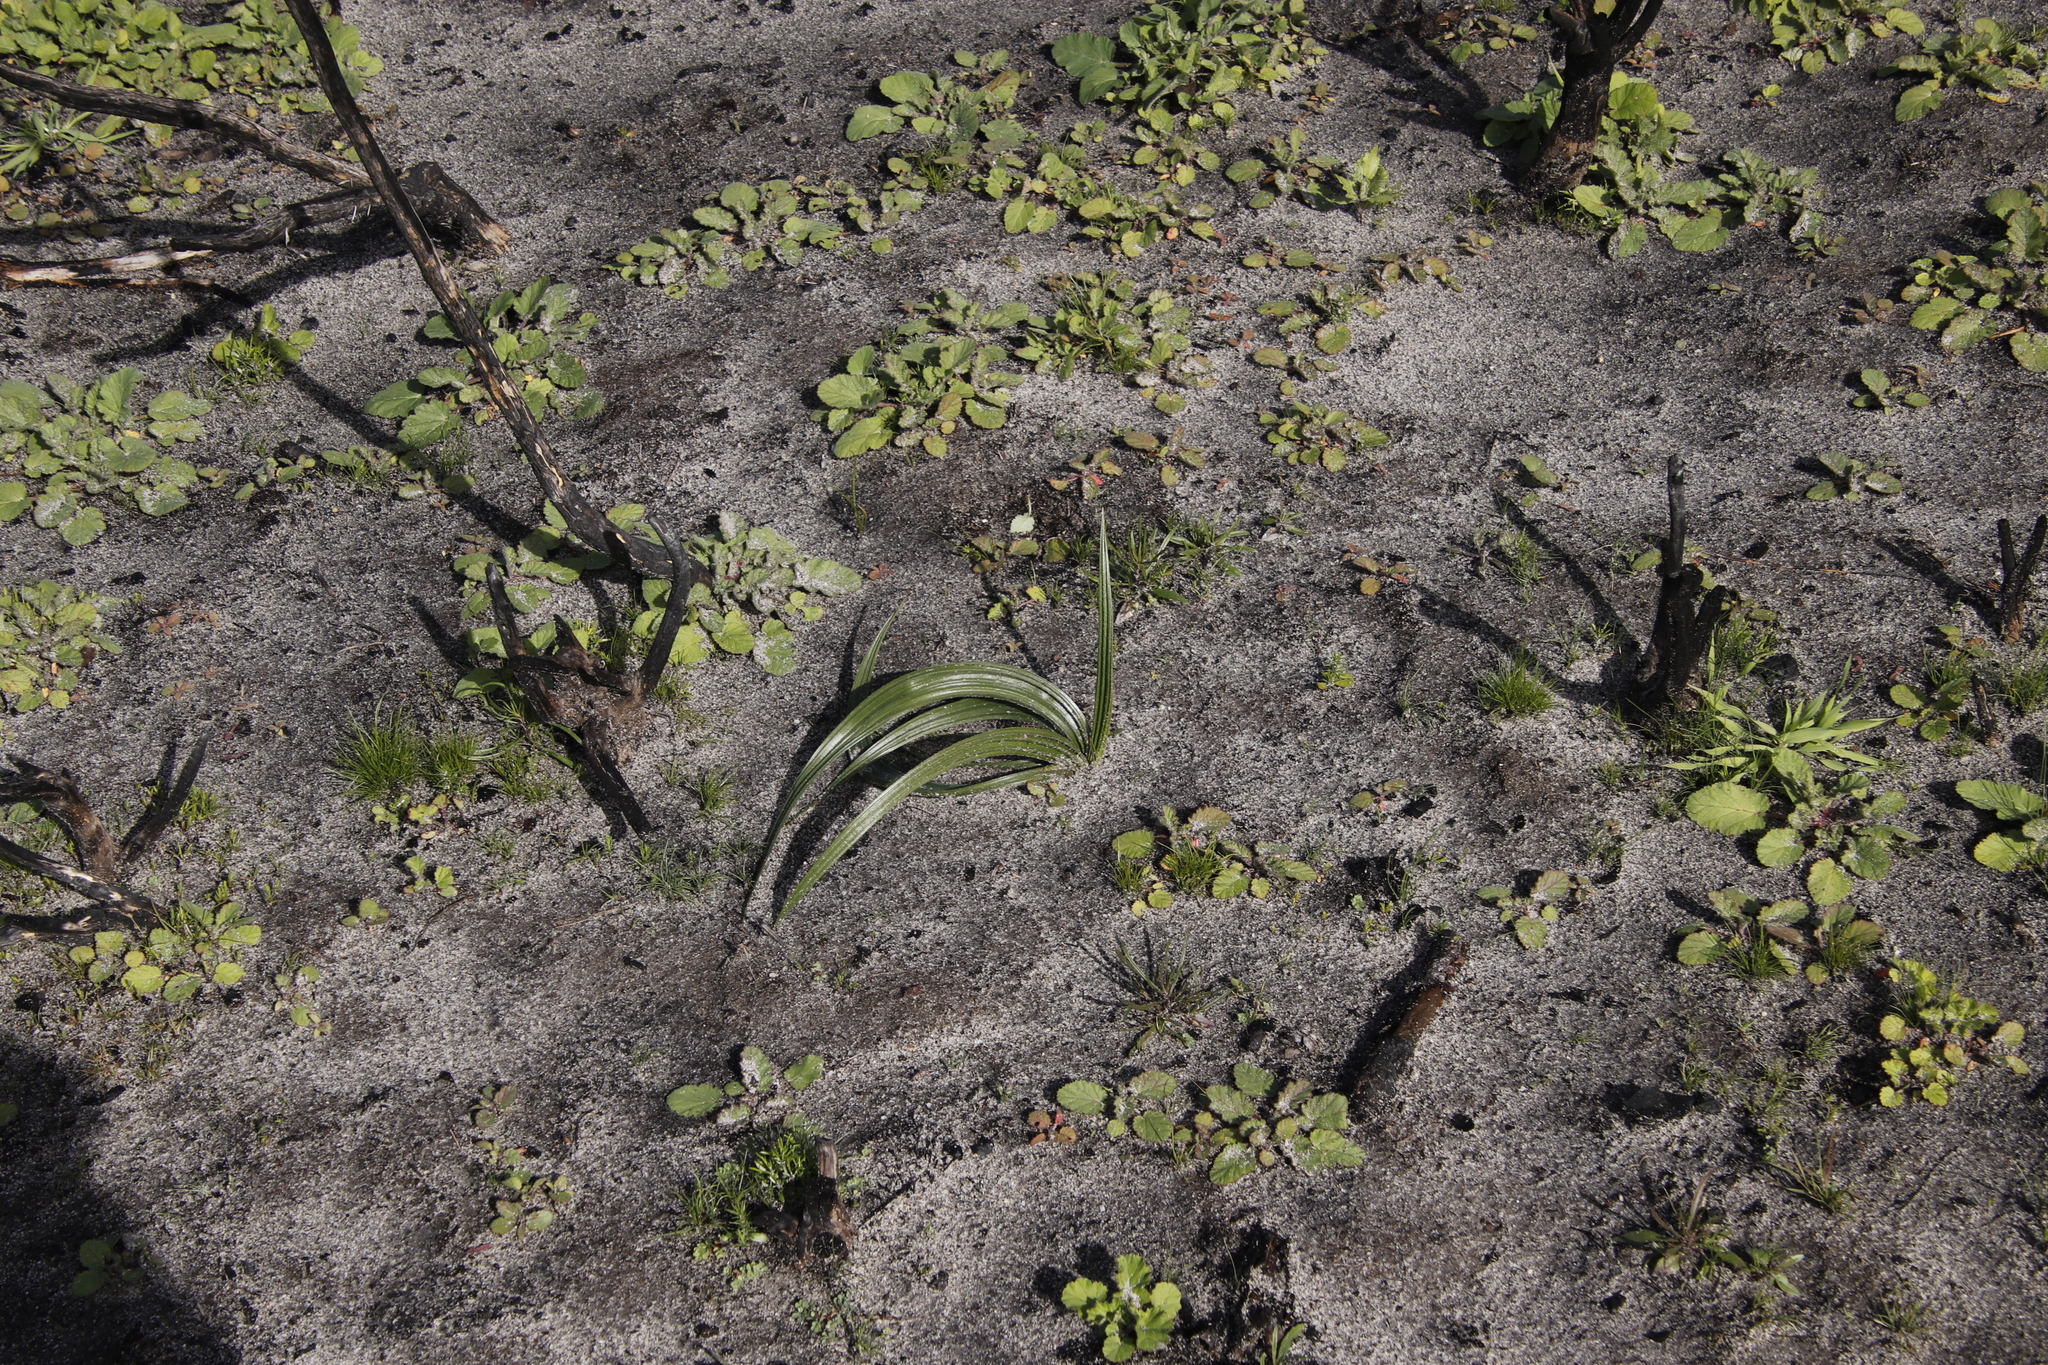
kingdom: Plantae
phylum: Tracheophyta
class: Liliopsida
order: Commelinales
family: Haemodoraceae
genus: Wachendorfia
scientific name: Wachendorfia paniculata
